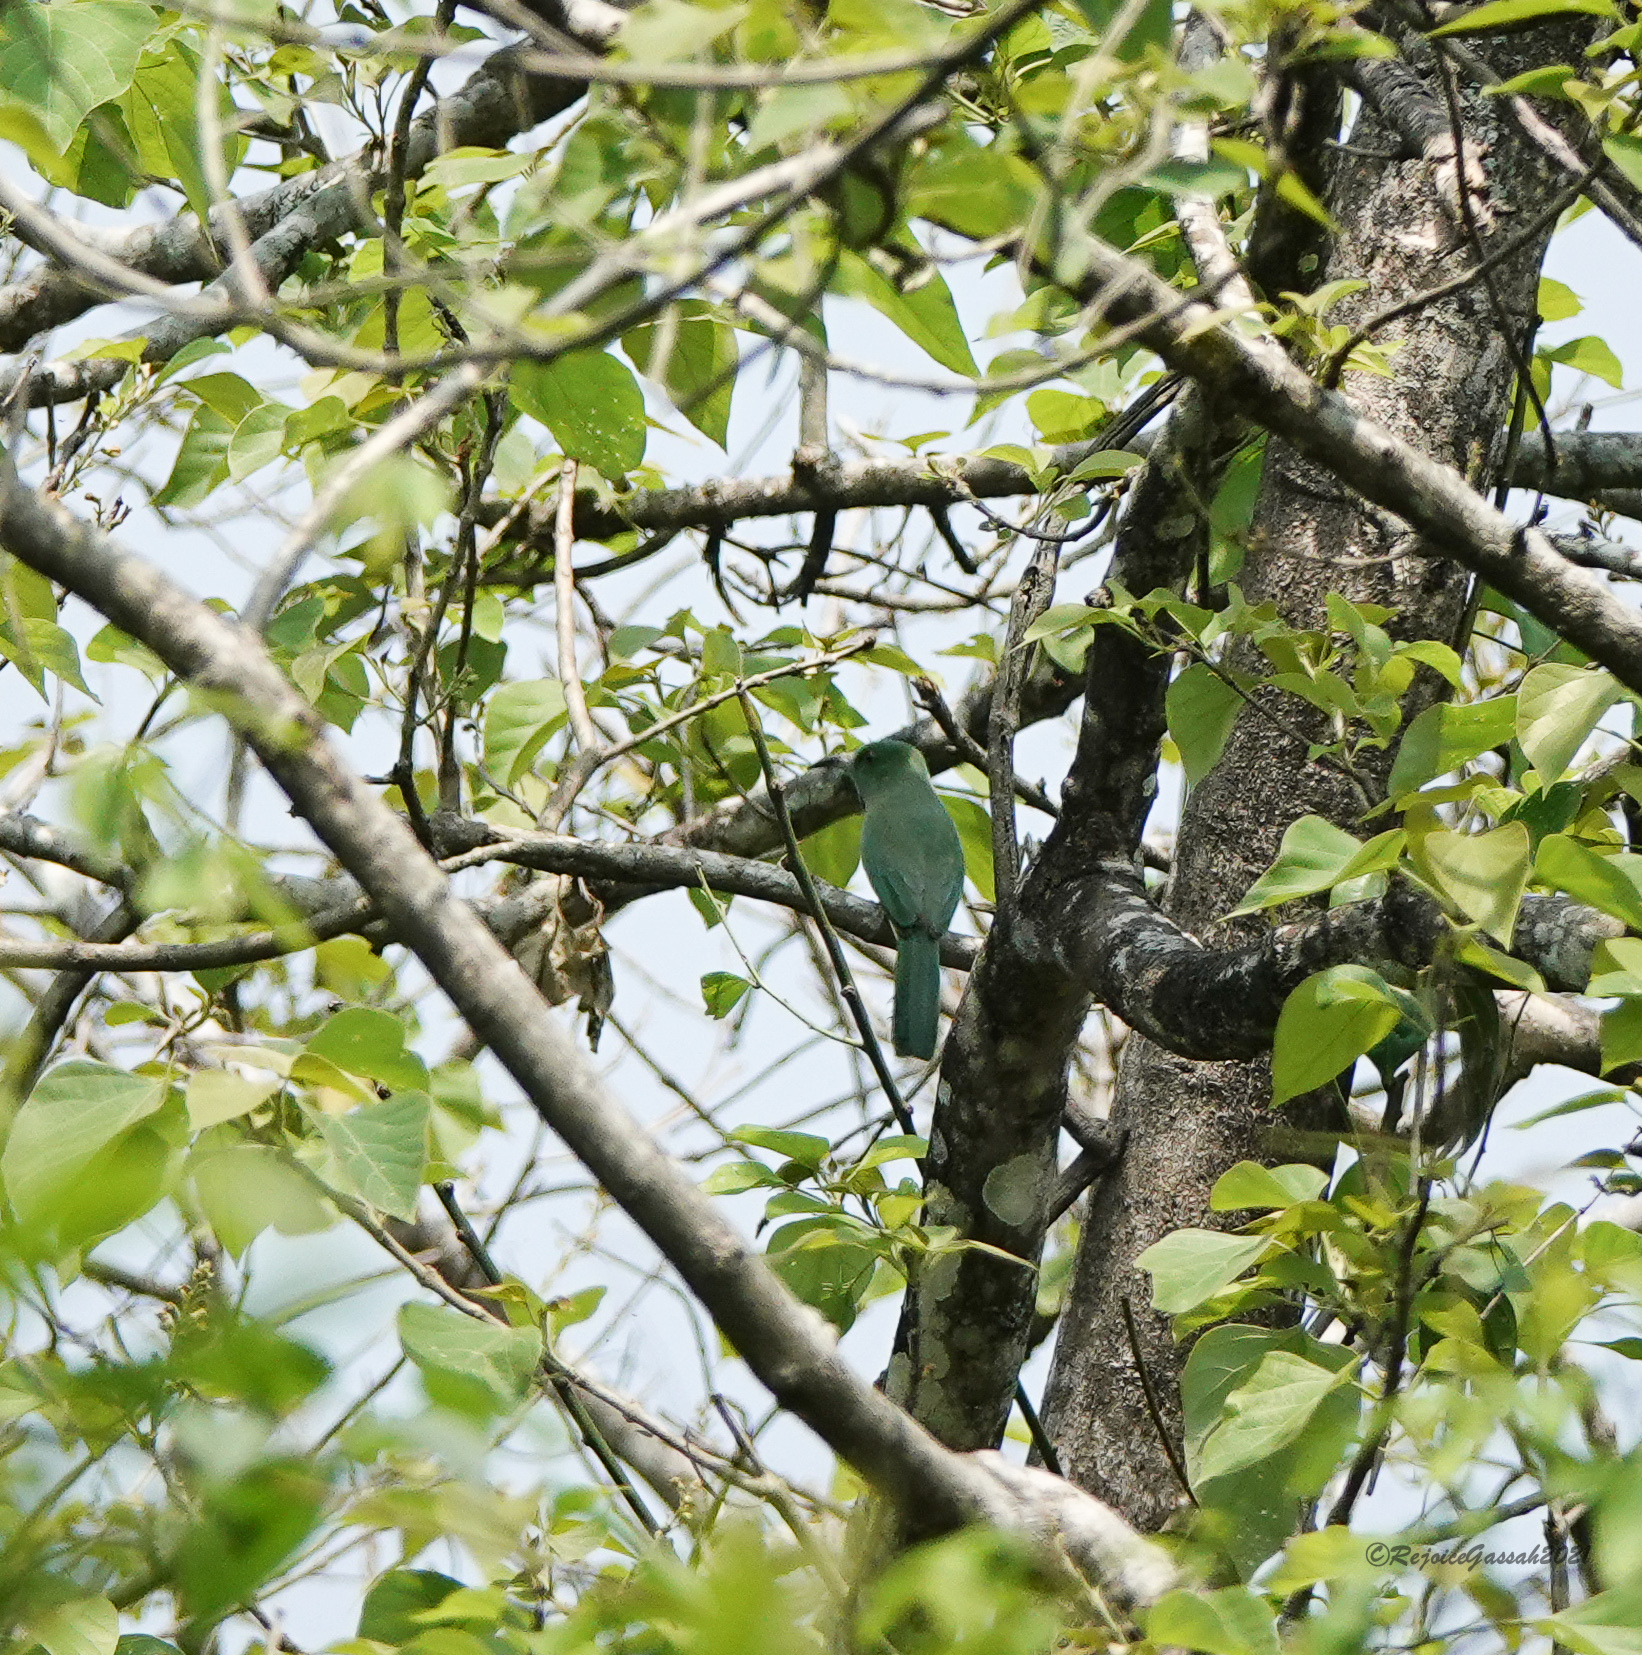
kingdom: Animalia
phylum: Chordata
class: Aves
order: Coraciiformes
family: Meropidae
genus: Nyctyornis
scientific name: Nyctyornis athertoni
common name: Blue-bearded bee-eater
